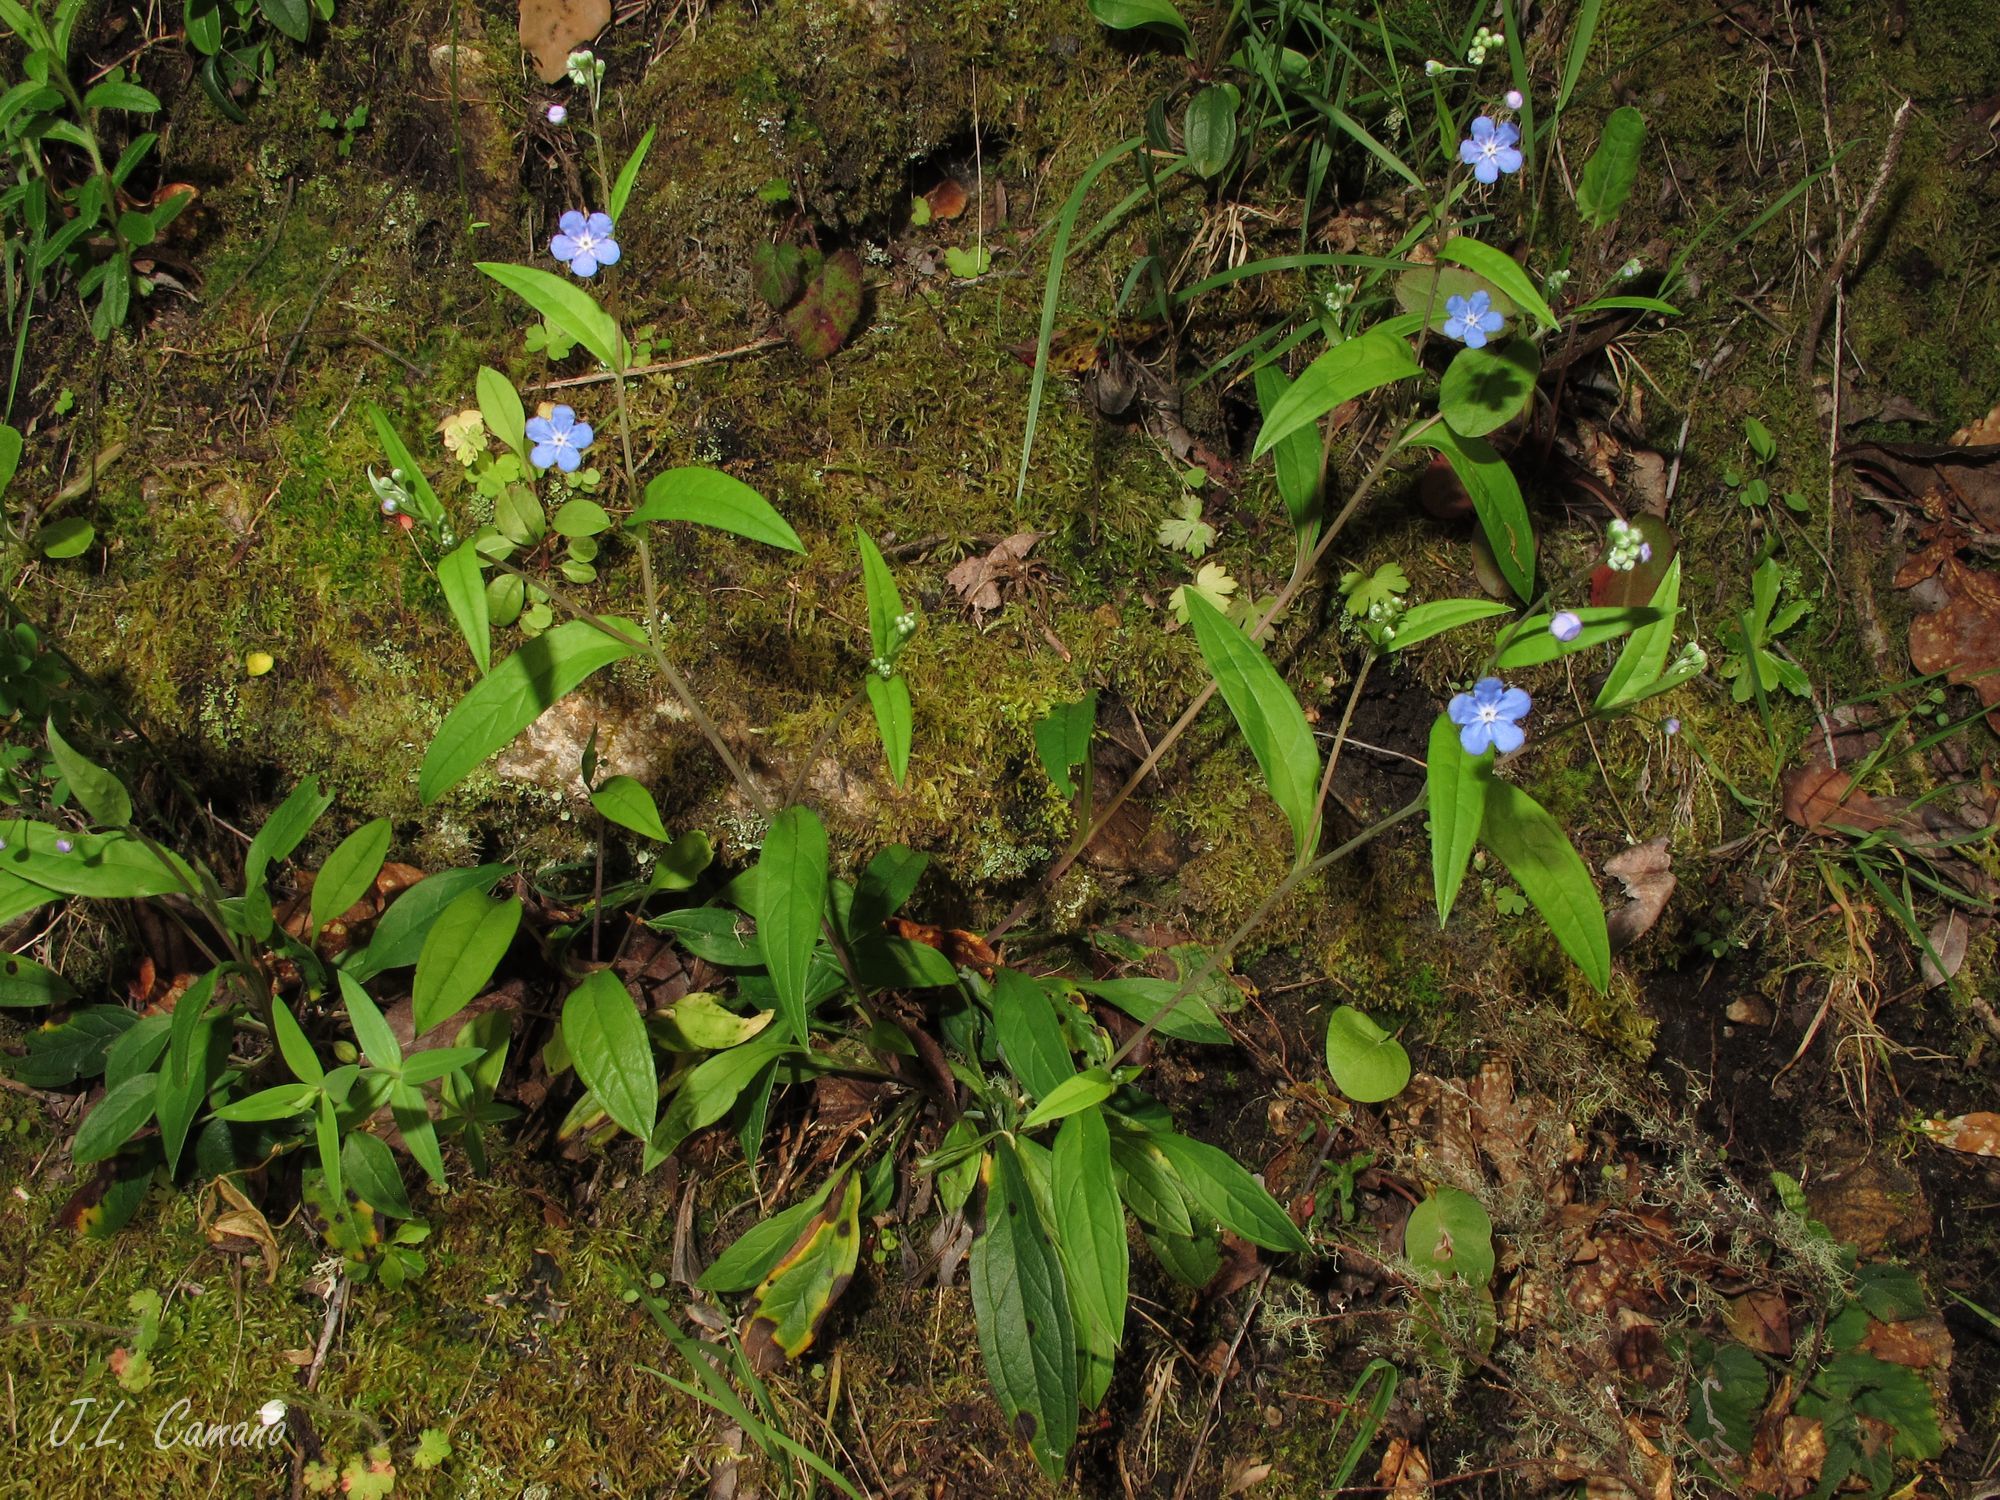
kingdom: Plantae
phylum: Tracheophyta
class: Magnoliopsida
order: Boraginales
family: Boraginaceae
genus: Omphalodes
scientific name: Omphalodes nitida
